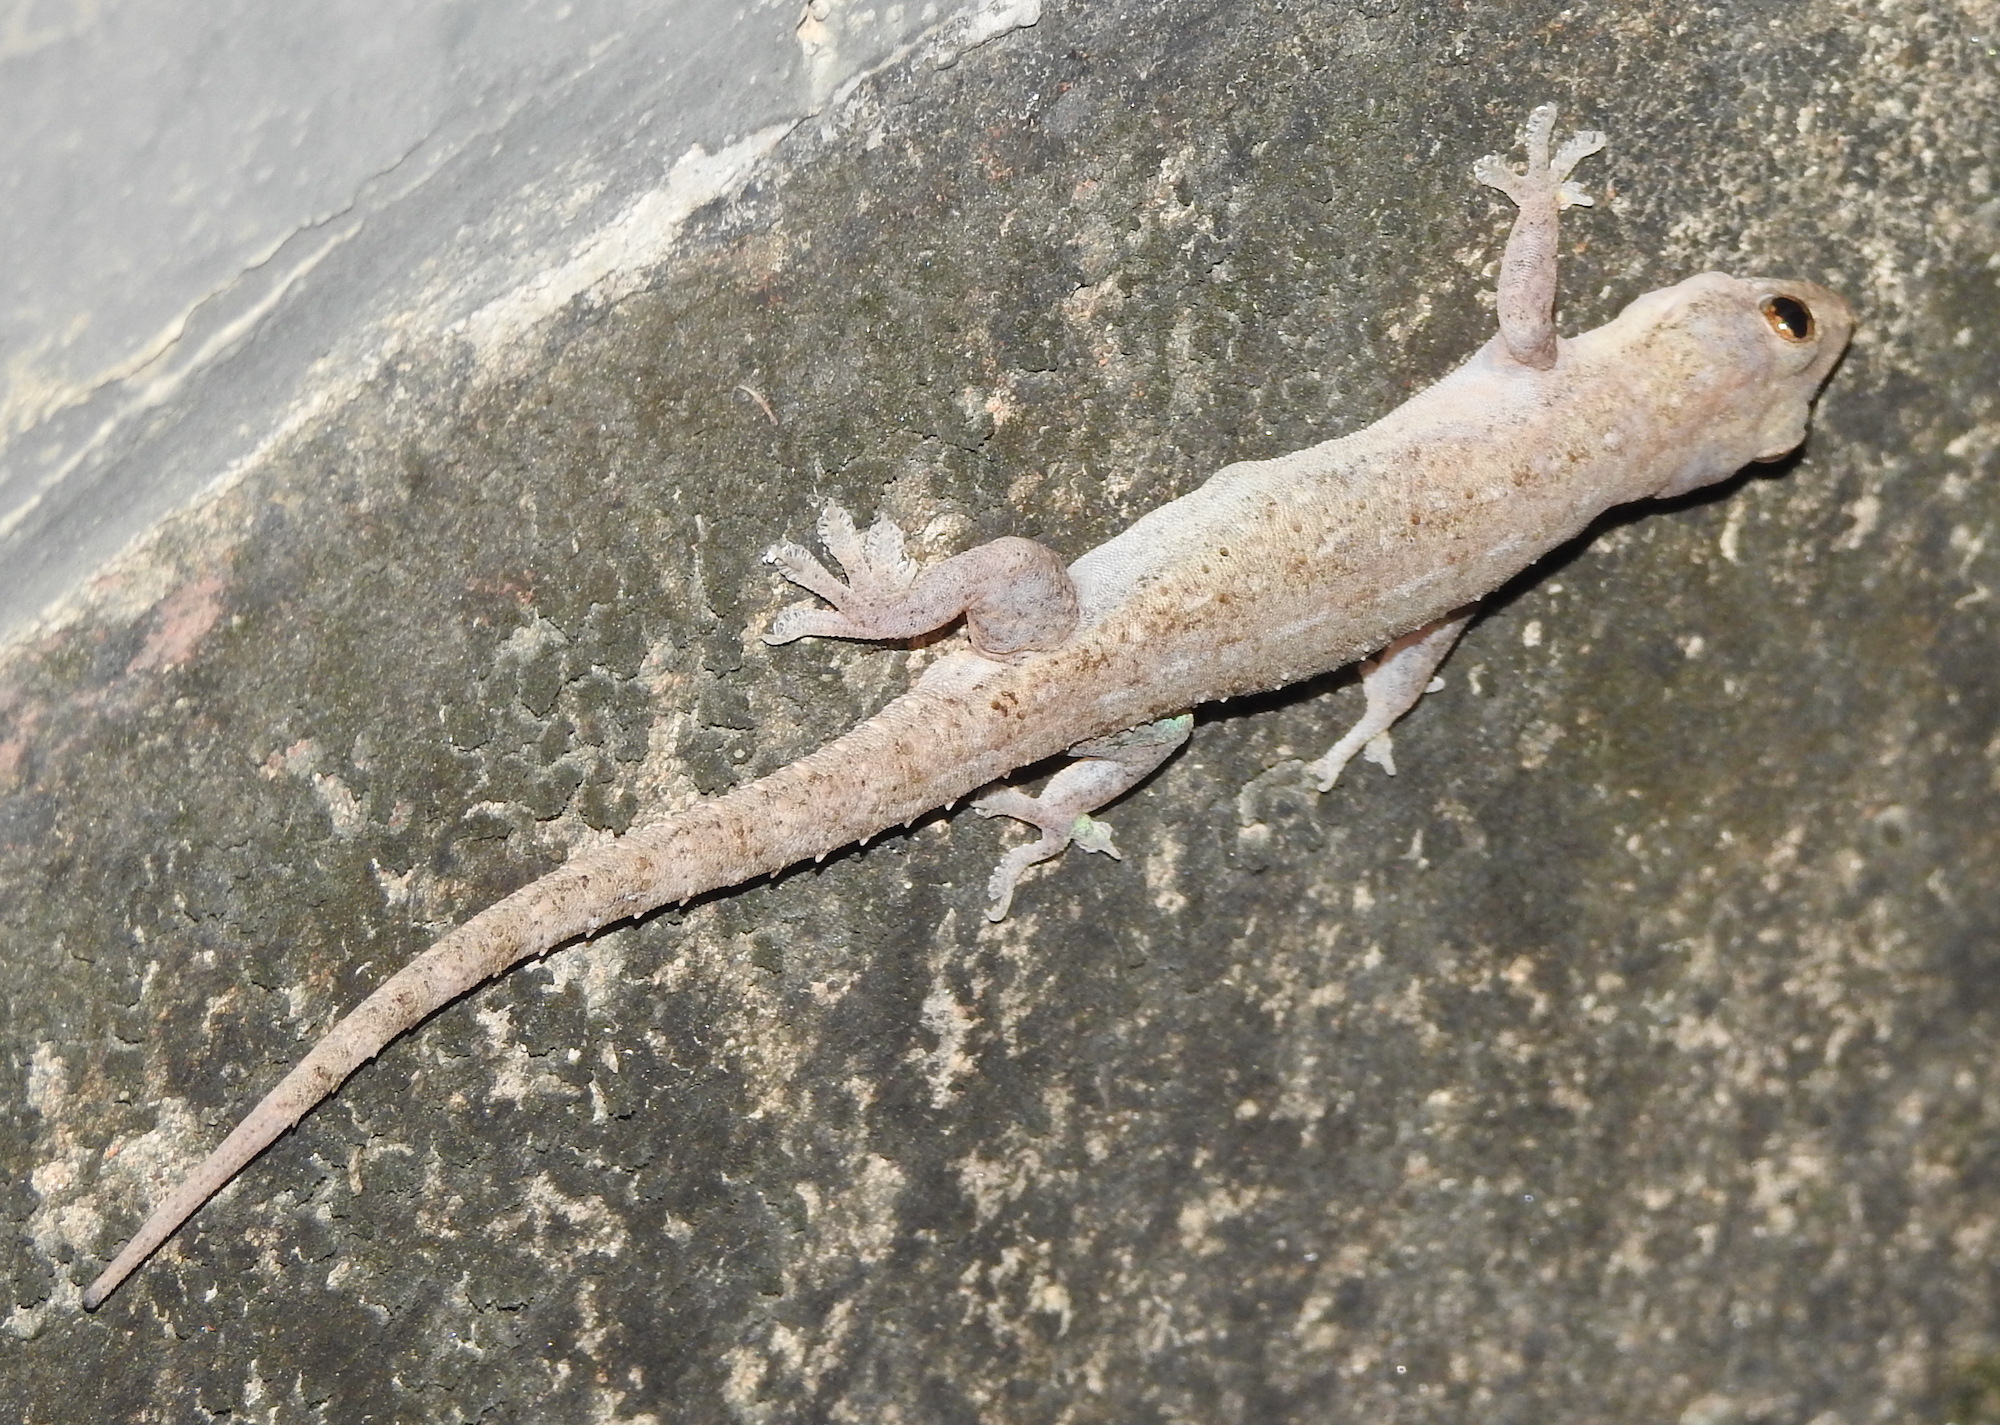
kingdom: Animalia
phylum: Chordata
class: Squamata
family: Gekkonidae
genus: Hemidactylus
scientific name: Hemidactylus frenatus
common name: Common house gecko
